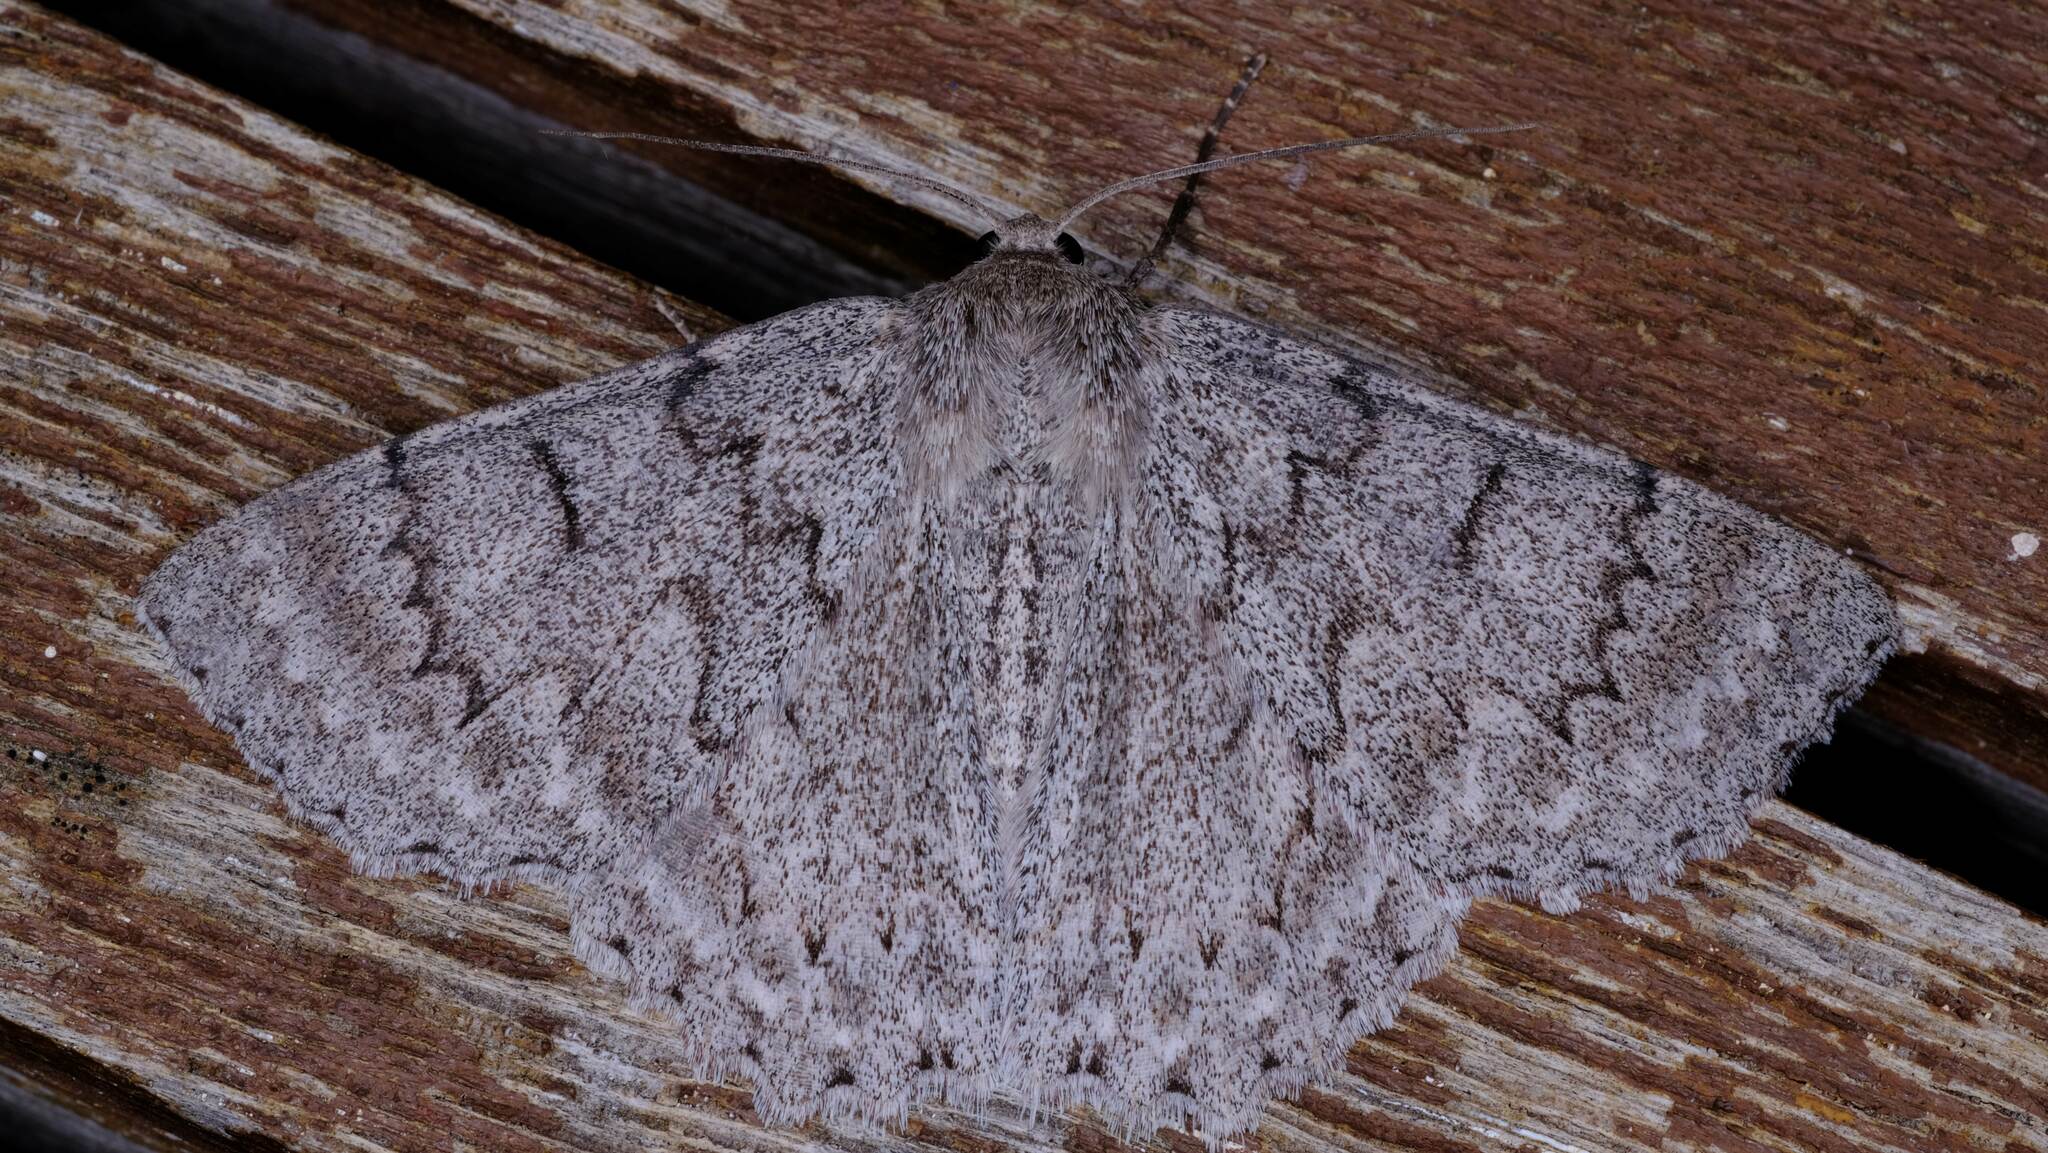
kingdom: Animalia
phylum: Arthropoda
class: Insecta
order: Lepidoptera
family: Geometridae
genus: Crypsiphona
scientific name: Crypsiphona ocultaria
